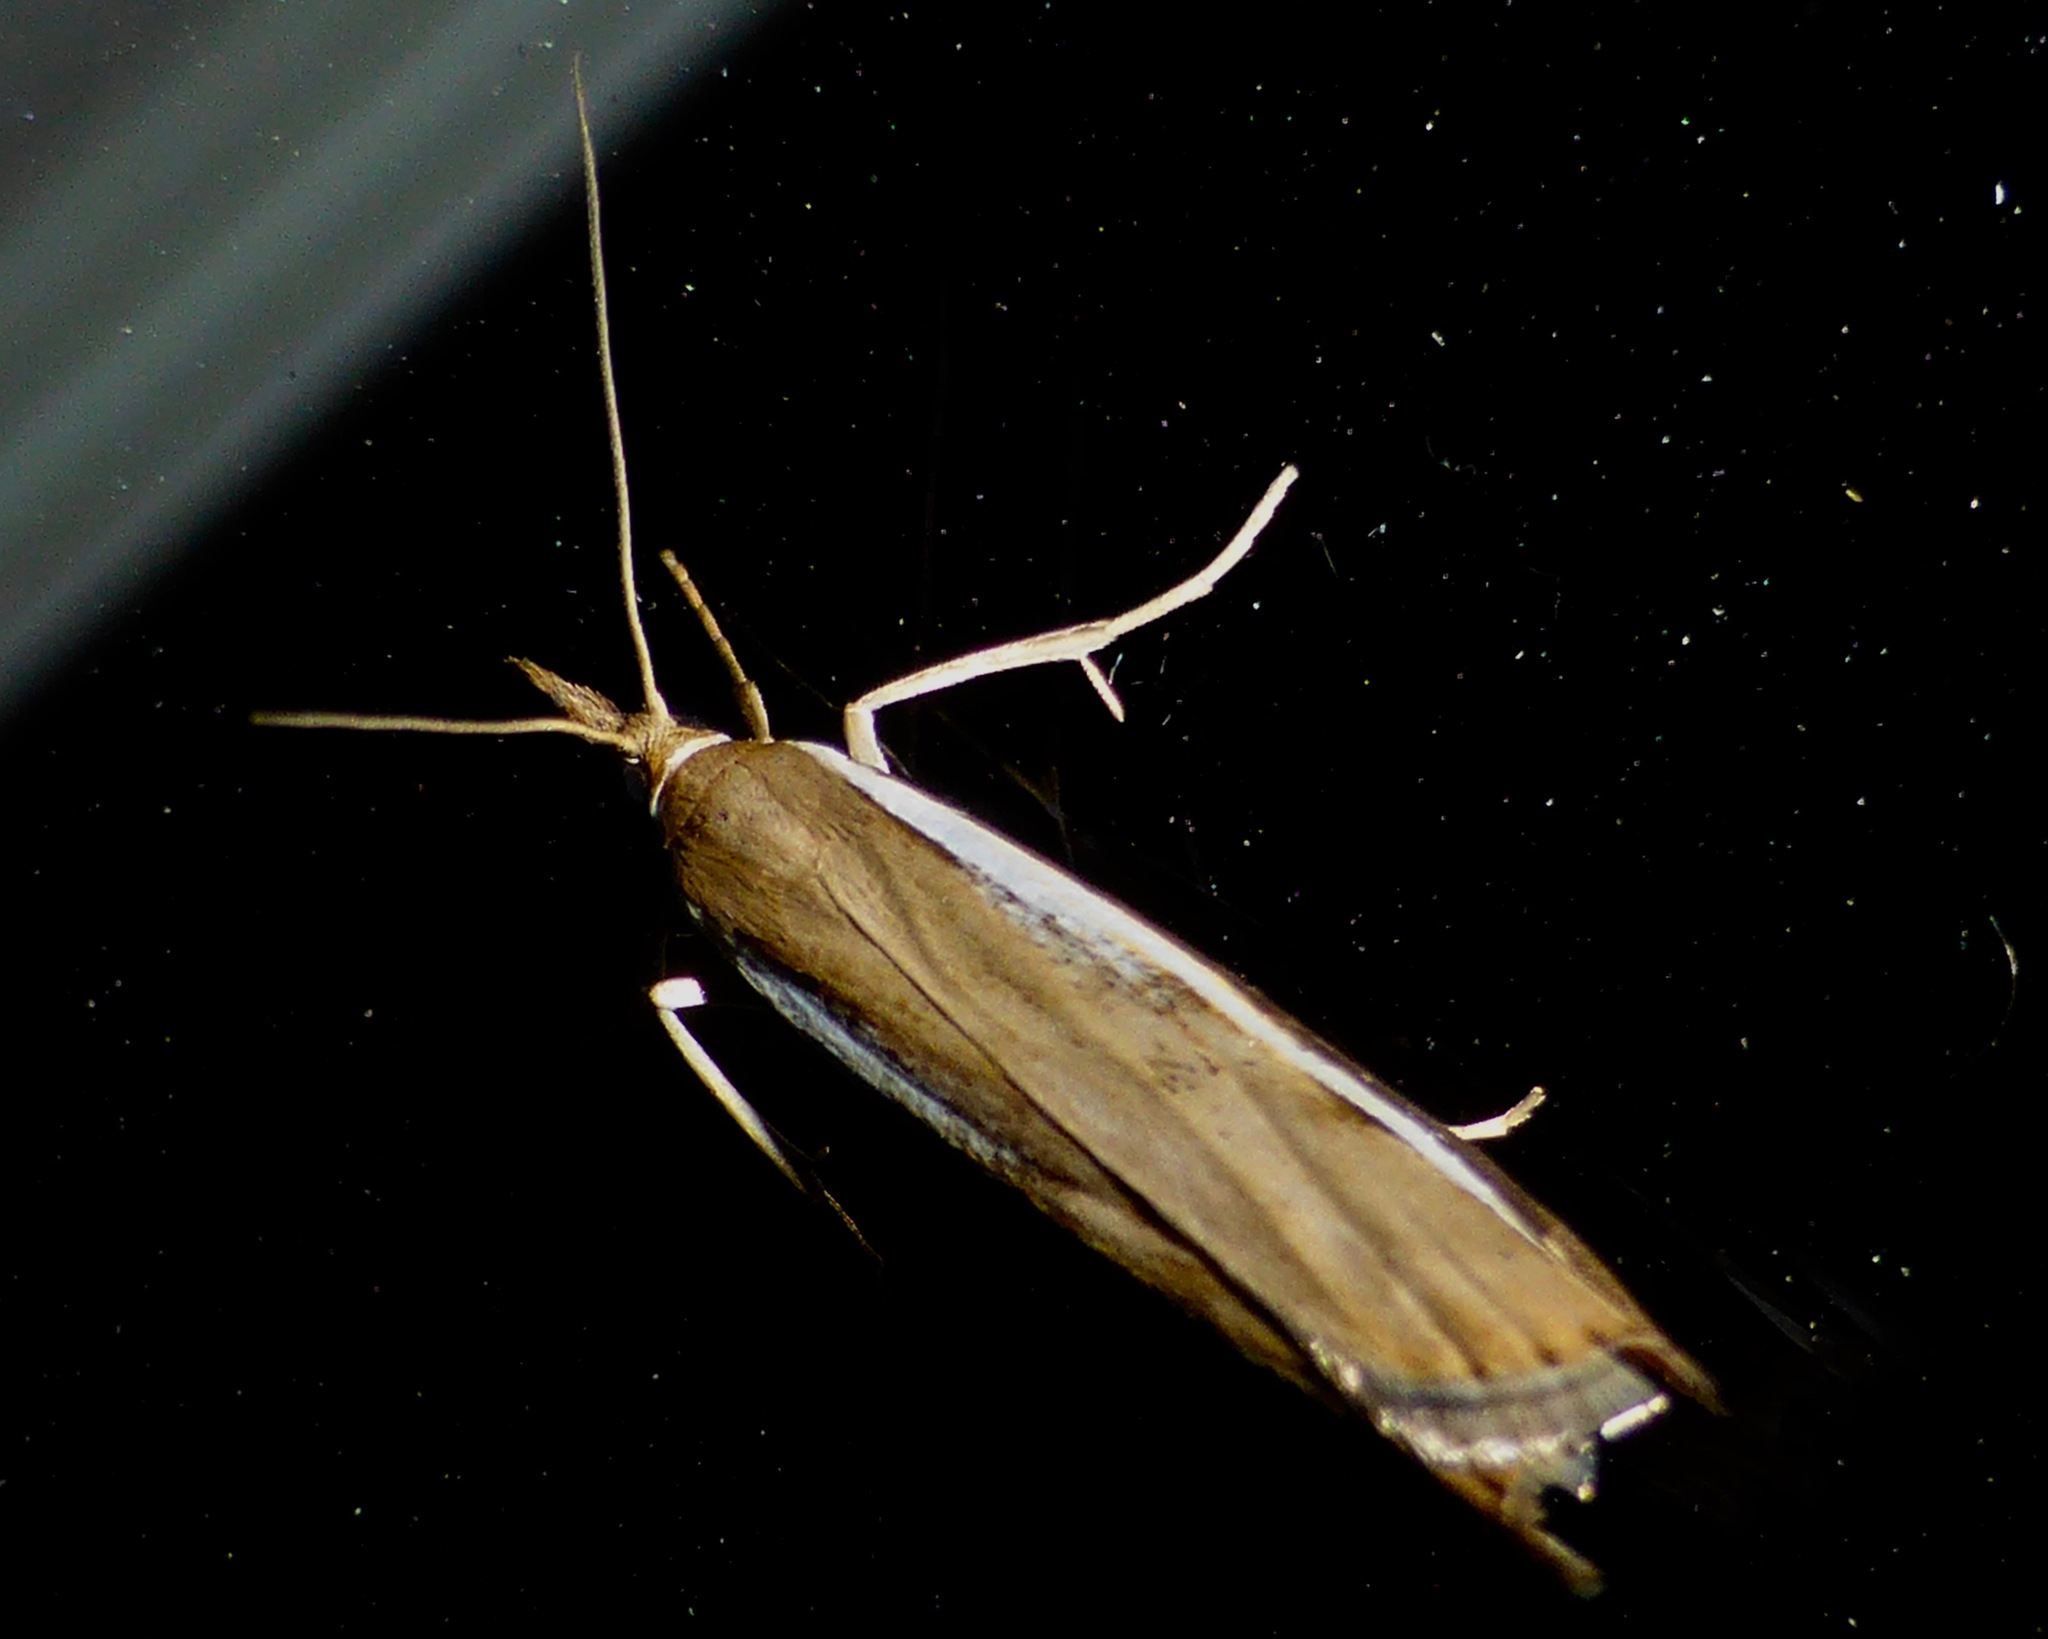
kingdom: Animalia
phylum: Arthropoda
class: Insecta
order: Lepidoptera
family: Crambidae
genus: Orocrambus
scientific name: Orocrambus flexuosellus
